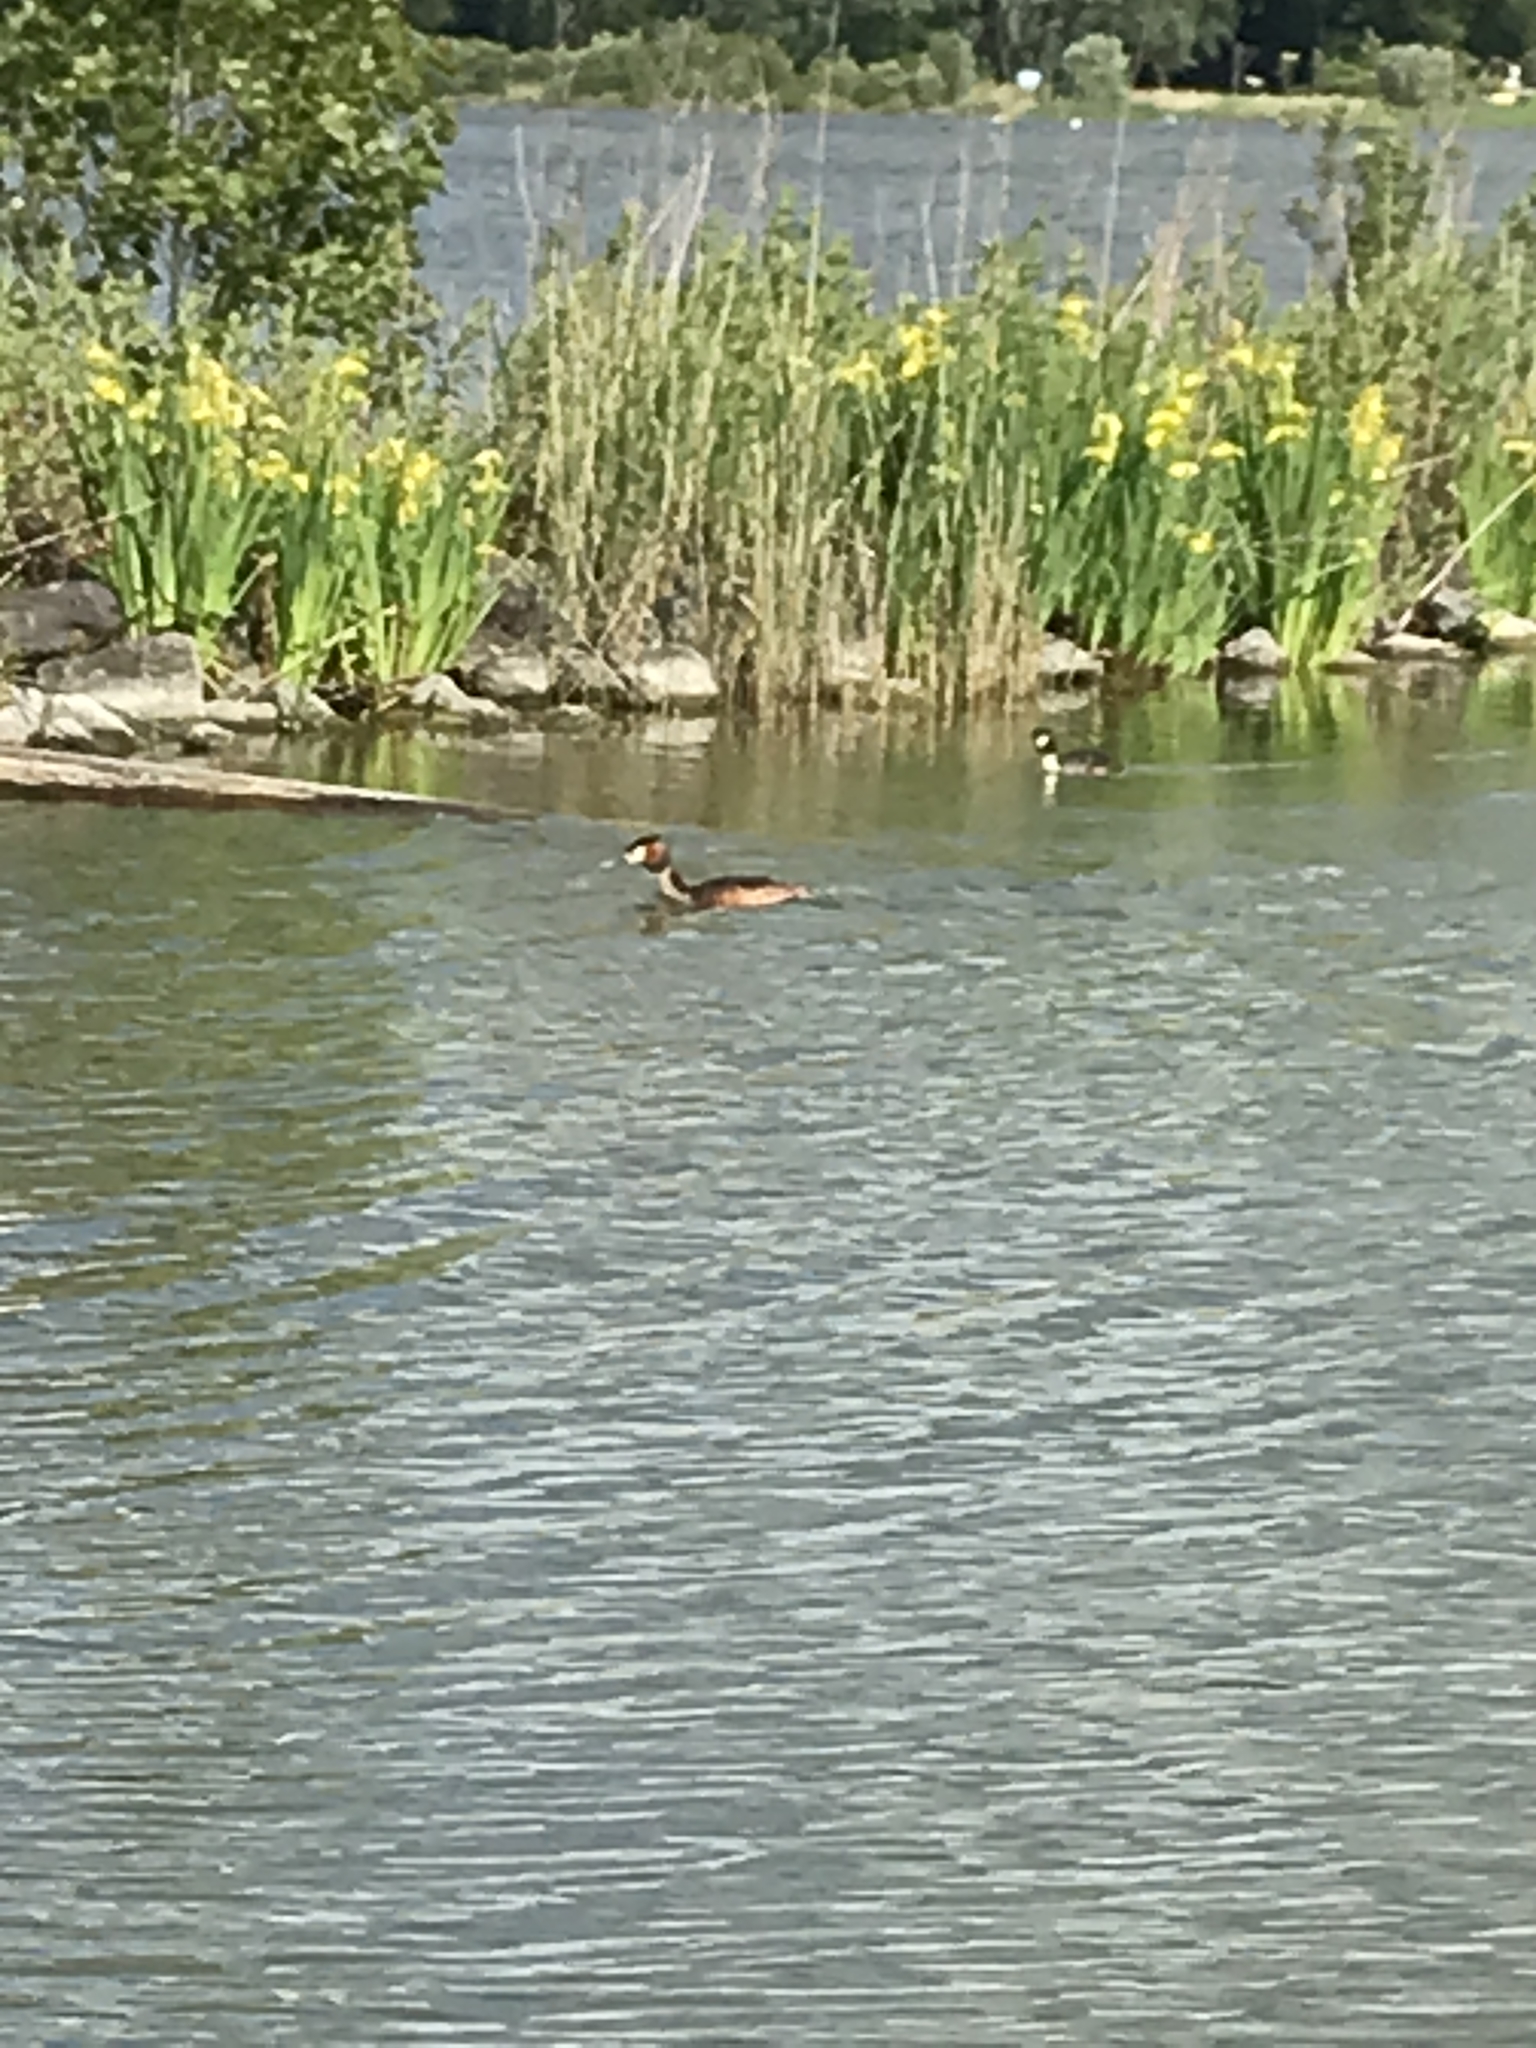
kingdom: Animalia
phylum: Chordata
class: Aves
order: Podicipediformes
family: Podicipedidae
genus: Podiceps
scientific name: Podiceps cristatus
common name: Great crested grebe
